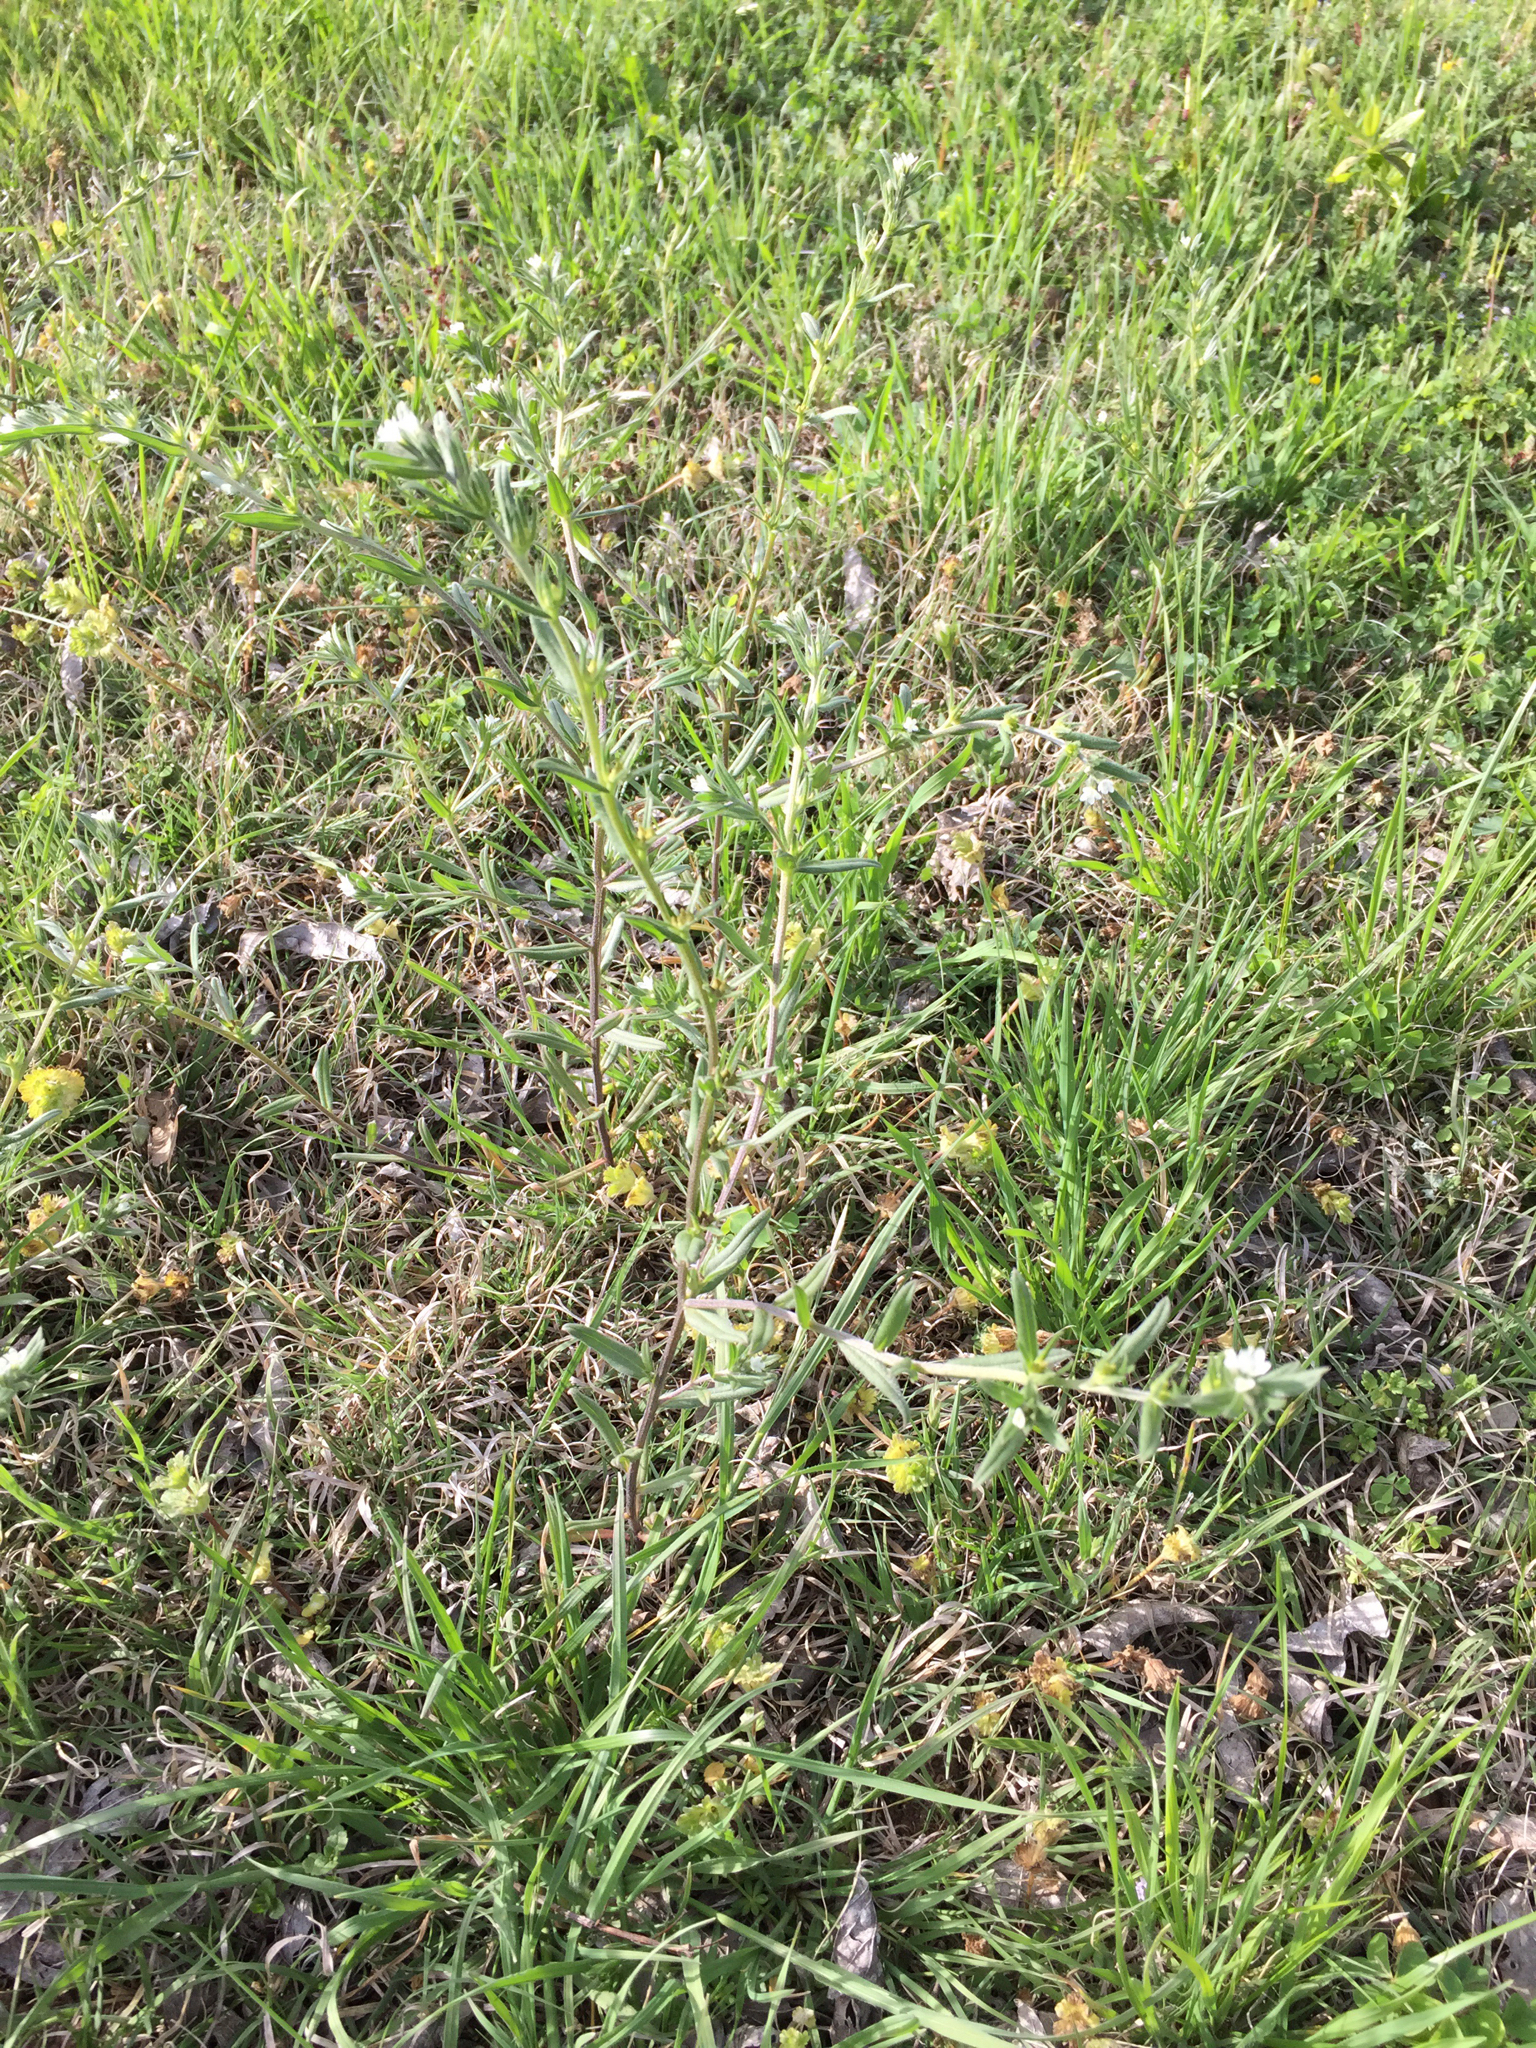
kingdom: Plantae
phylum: Tracheophyta
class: Magnoliopsida
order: Boraginales
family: Boraginaceae
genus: Buglossoides
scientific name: Buglossoides arvensis
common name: Corn gromwell
